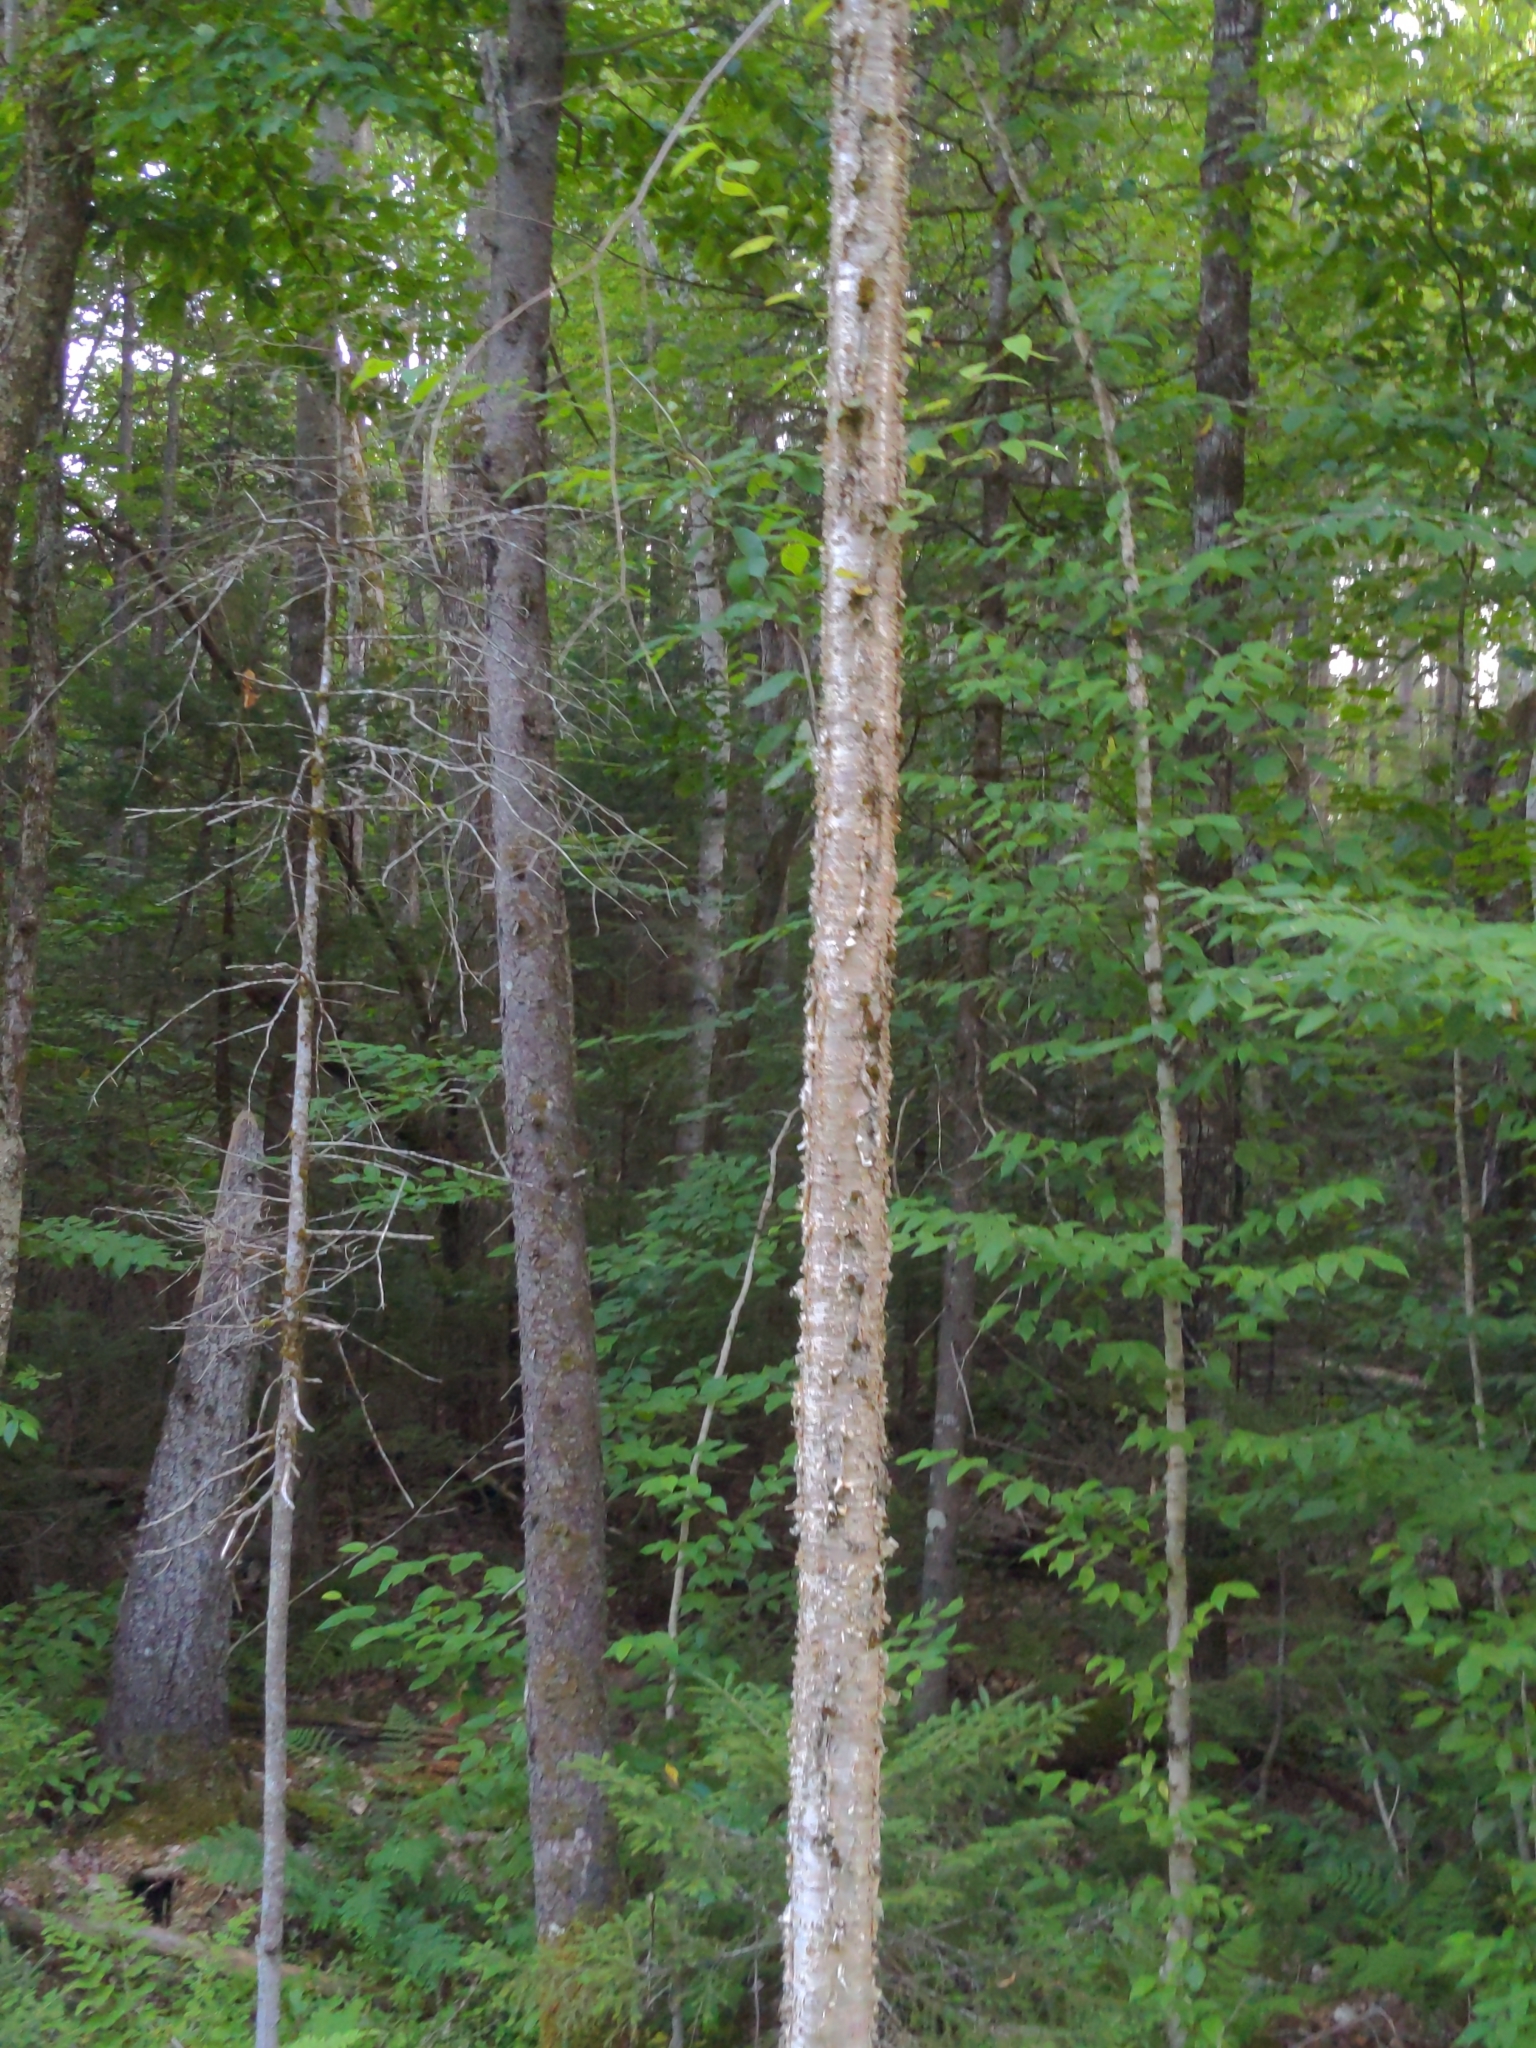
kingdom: Plantae
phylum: Tracheophyta
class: Magnoliopsida
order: Fagales
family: Betulaceae
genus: Betula
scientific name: Betula alleghaniensis
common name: Yellow birch
